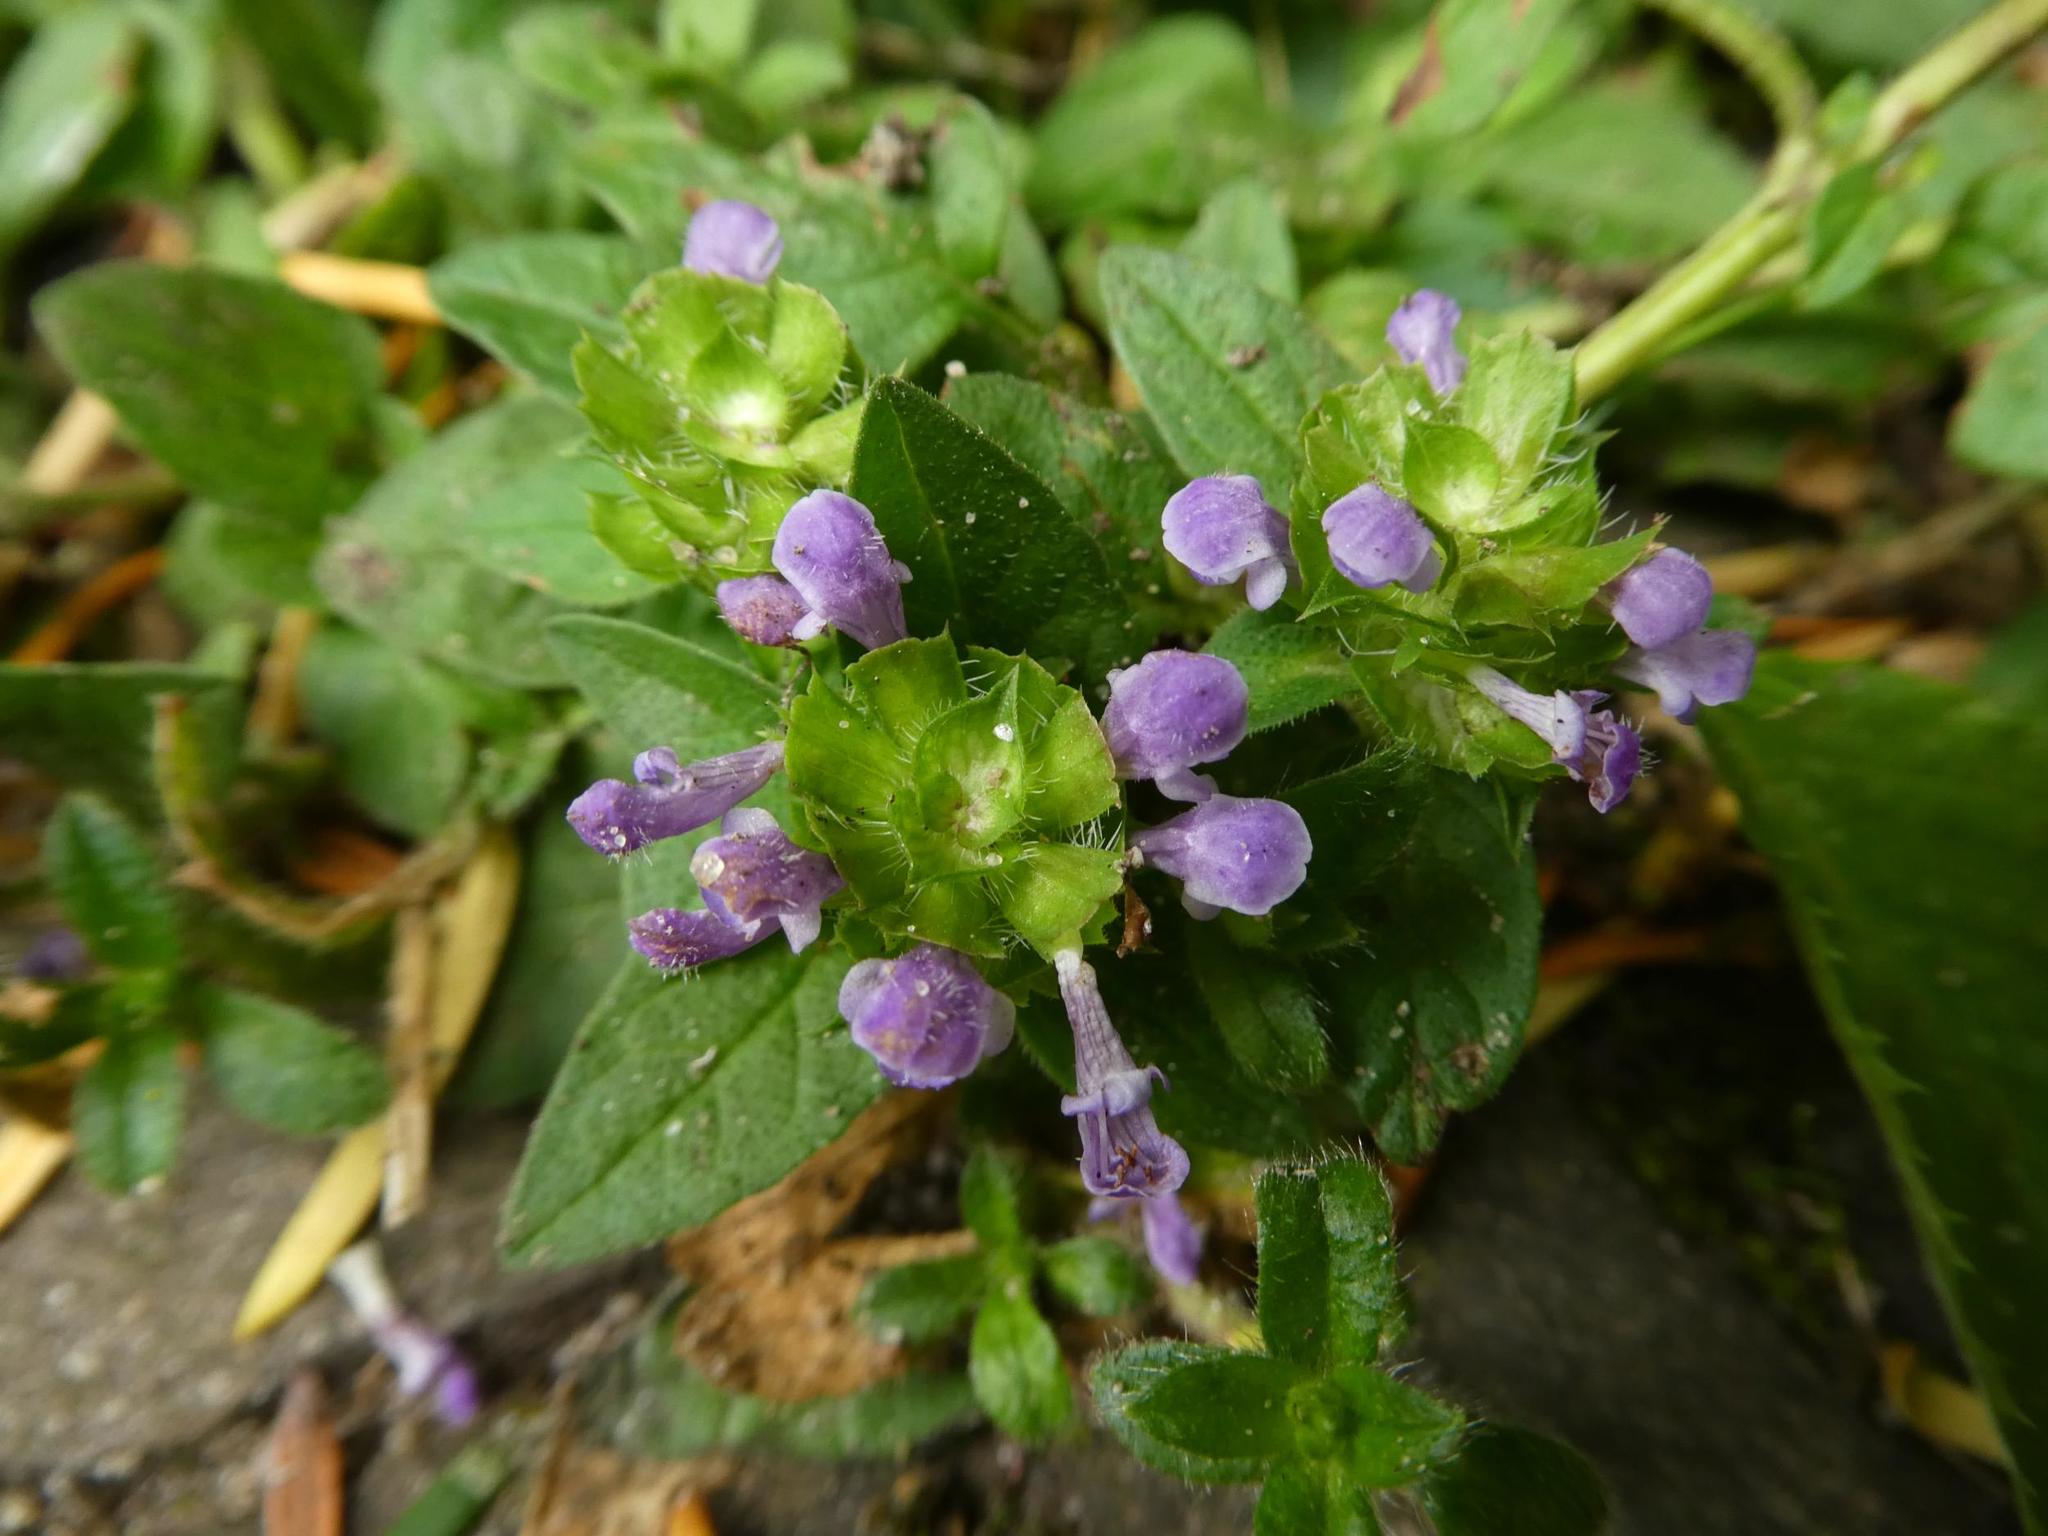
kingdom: Plantae
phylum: Tracheophyta
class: Magnoliopsida
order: Lamiales
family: Lamiaceae
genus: Prunella
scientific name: Prunella vulgaris
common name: Heal-all
